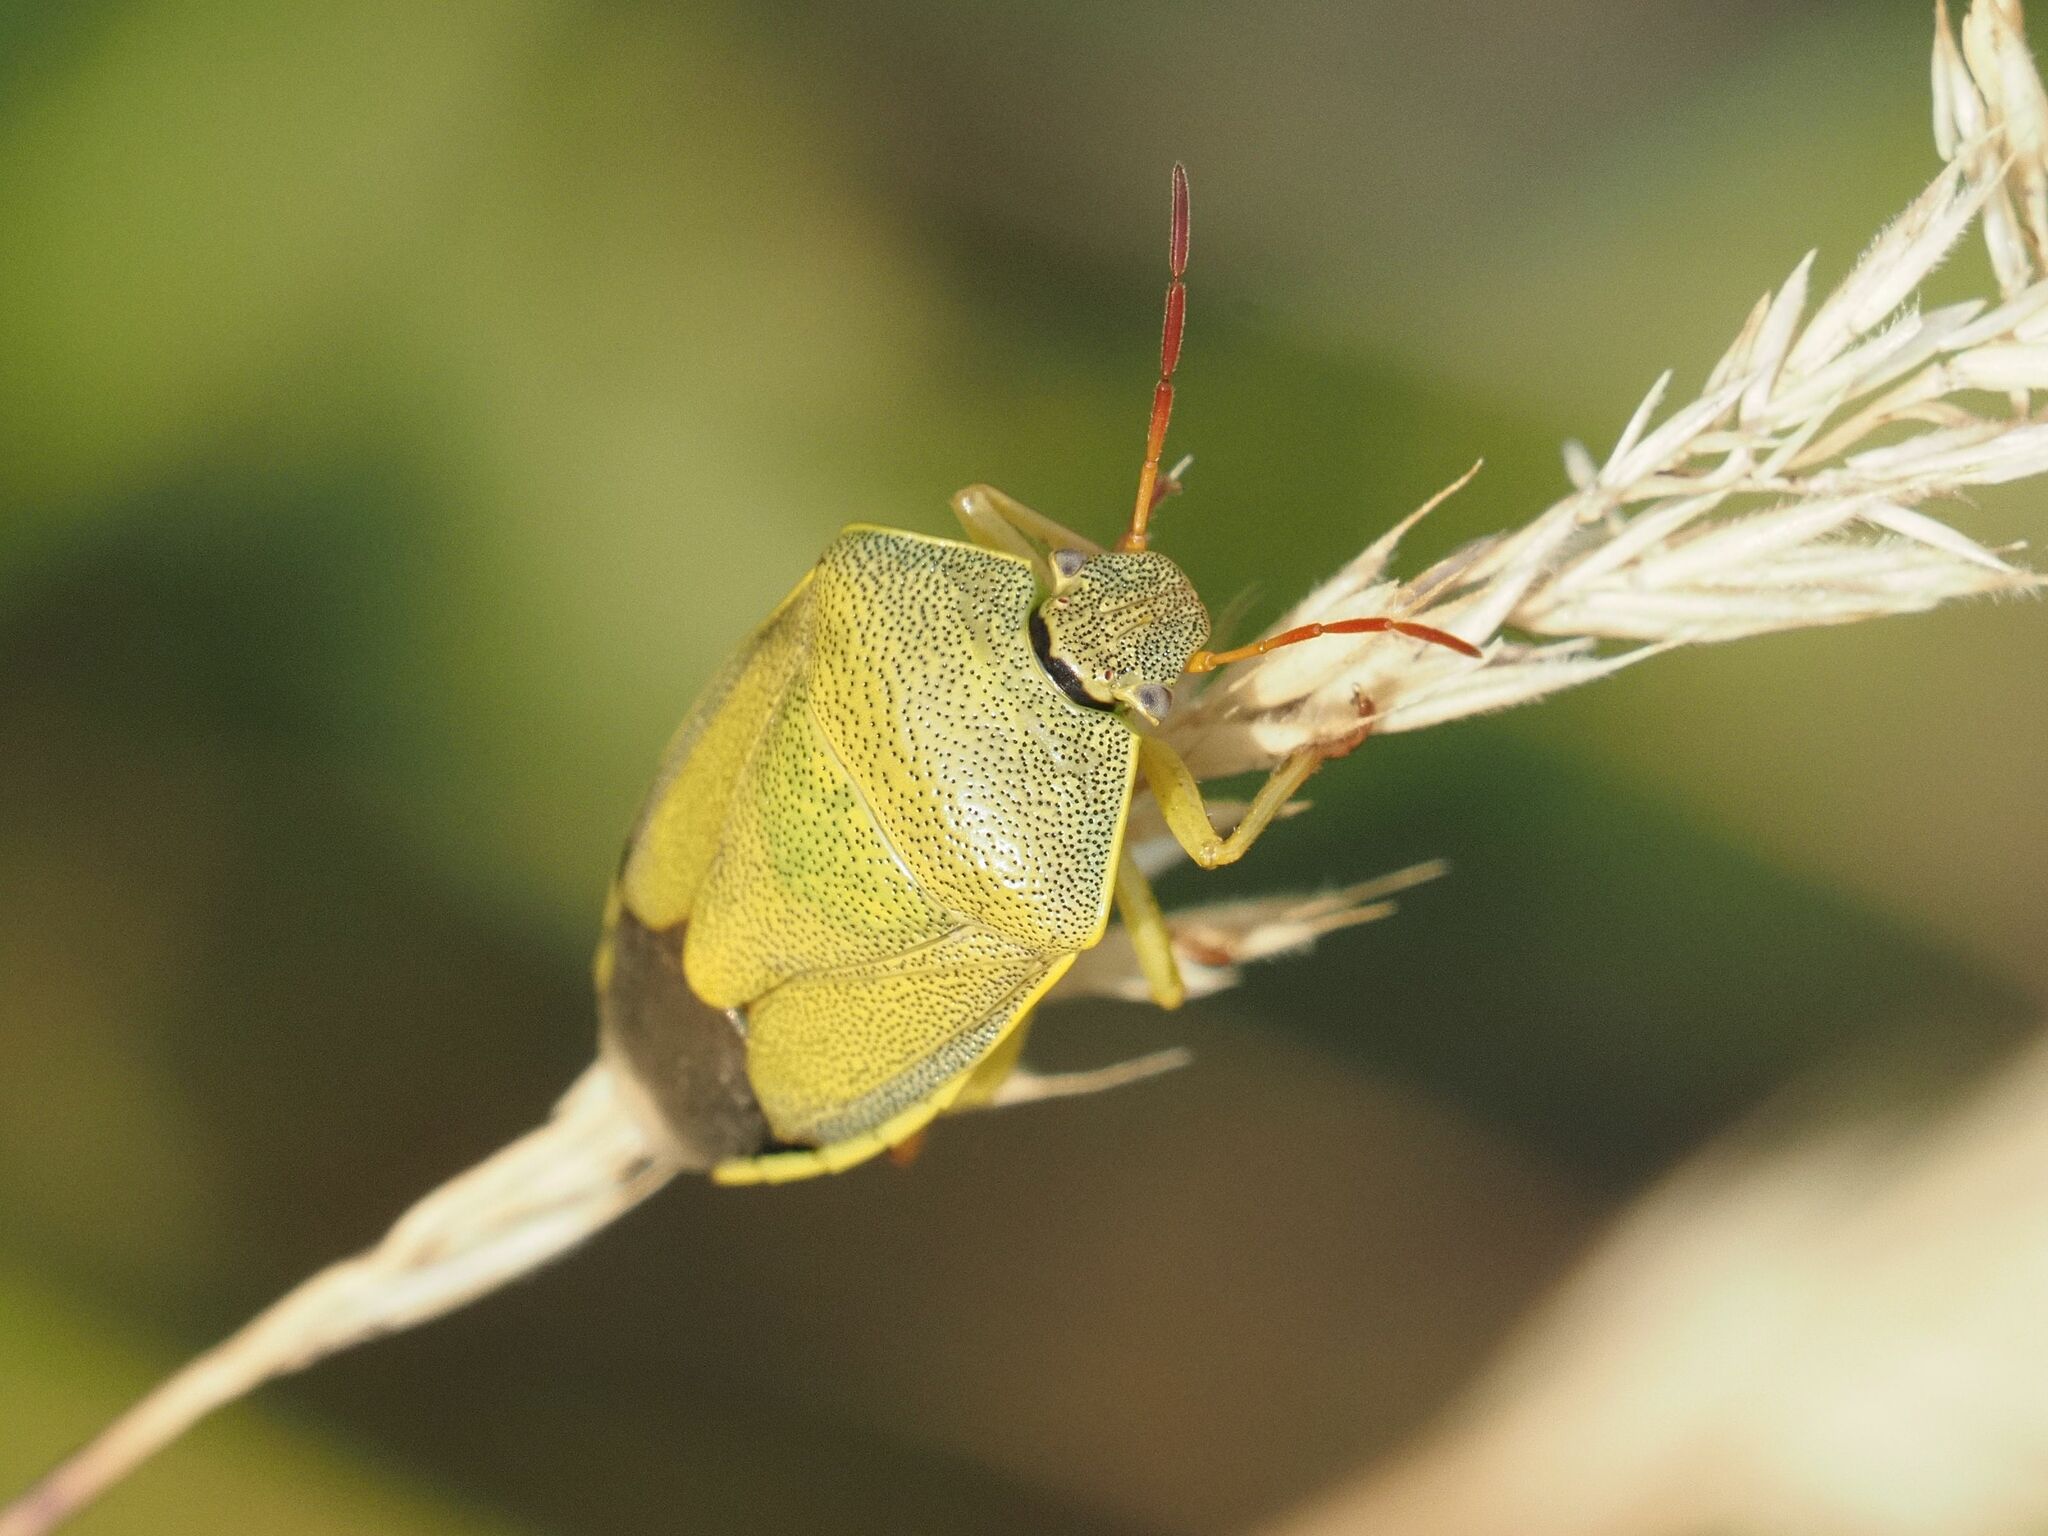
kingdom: Animalia
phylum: Arthropoda
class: Insecta
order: Hemiptera
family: Pentatomidae
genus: Piezodorus
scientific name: Piezodorus lituratus
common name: Stink bug
